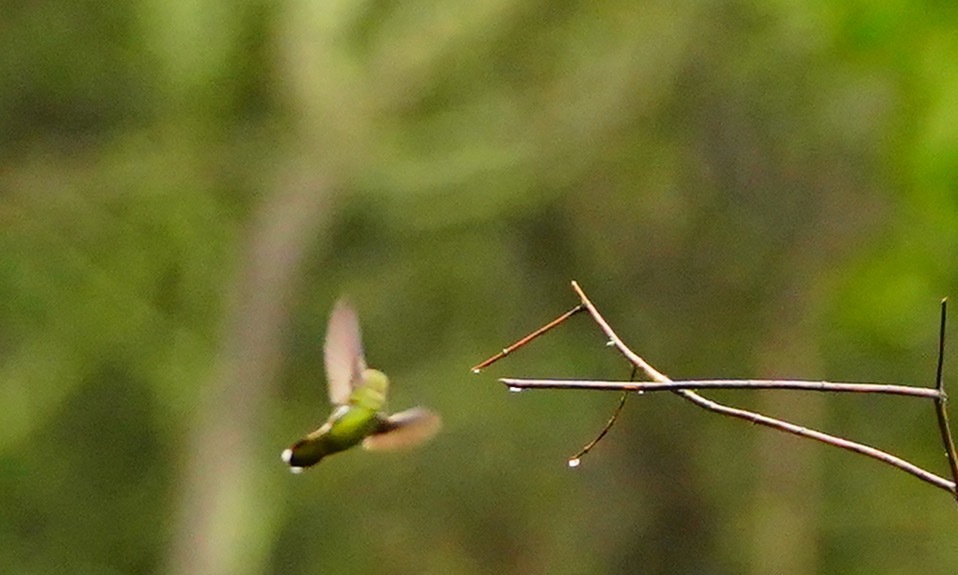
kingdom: Animalia
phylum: Chordata
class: Aves
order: Apodiformes
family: Trochilidae
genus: Calypte
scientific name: Calypte anna
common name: Anna's hummingbird
